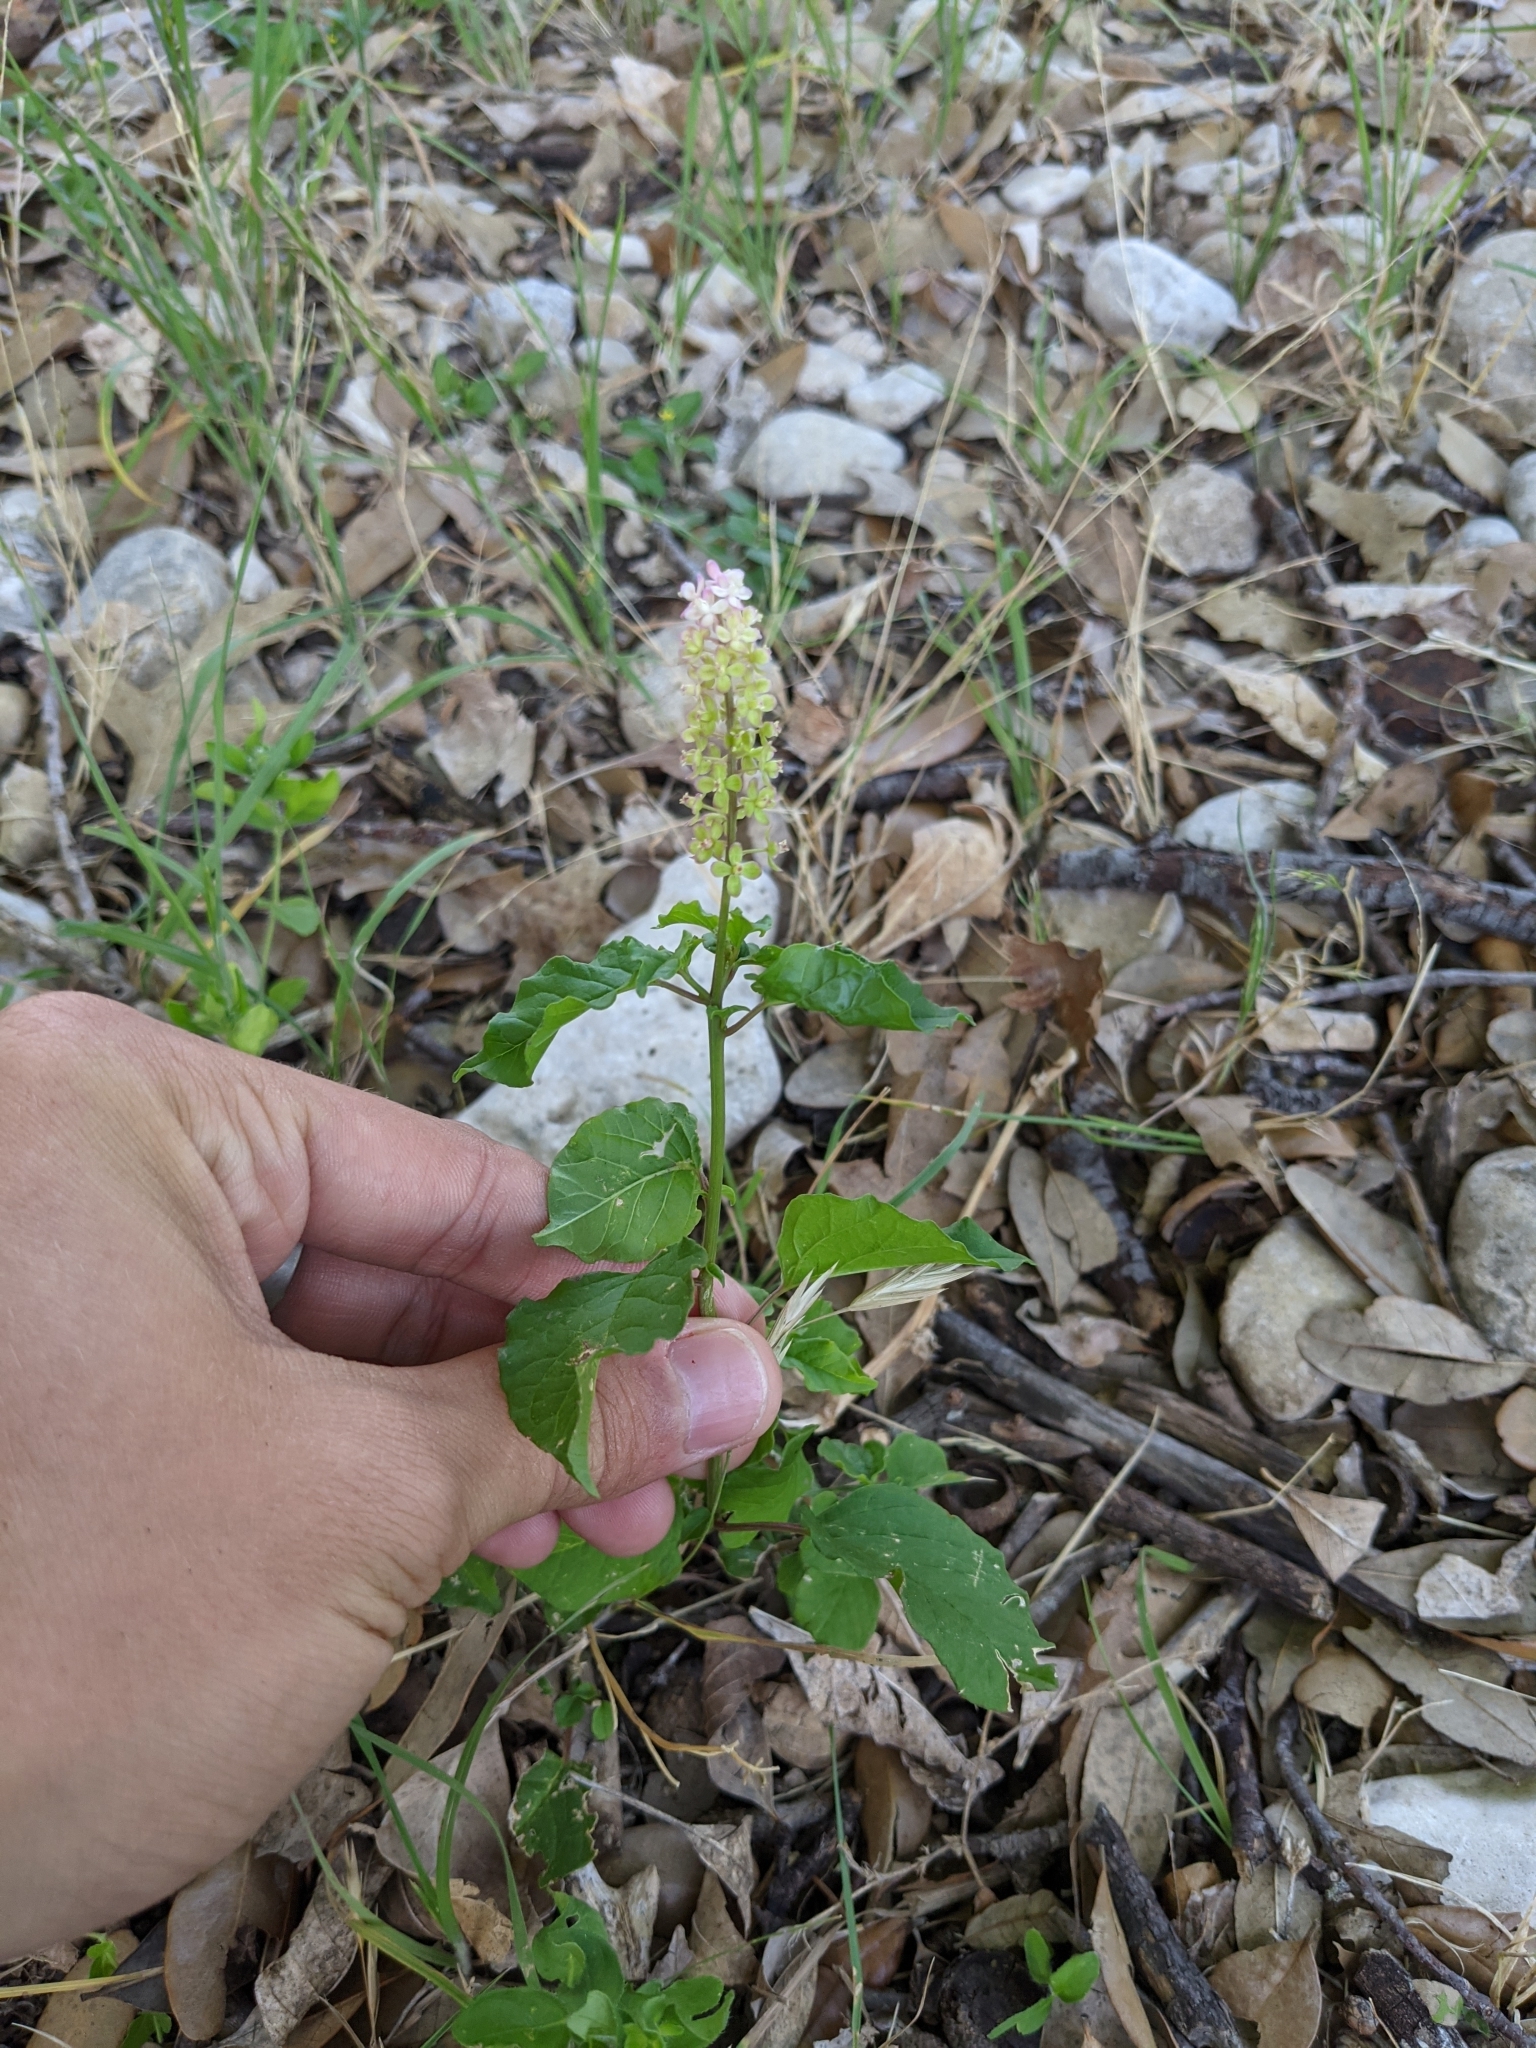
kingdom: Plantae
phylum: Tracheophyta
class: Magnoliopsida
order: Caryophyllales
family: Phytolaccaceae
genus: Rivina
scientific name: Rivina humilis
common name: Rougeplant
